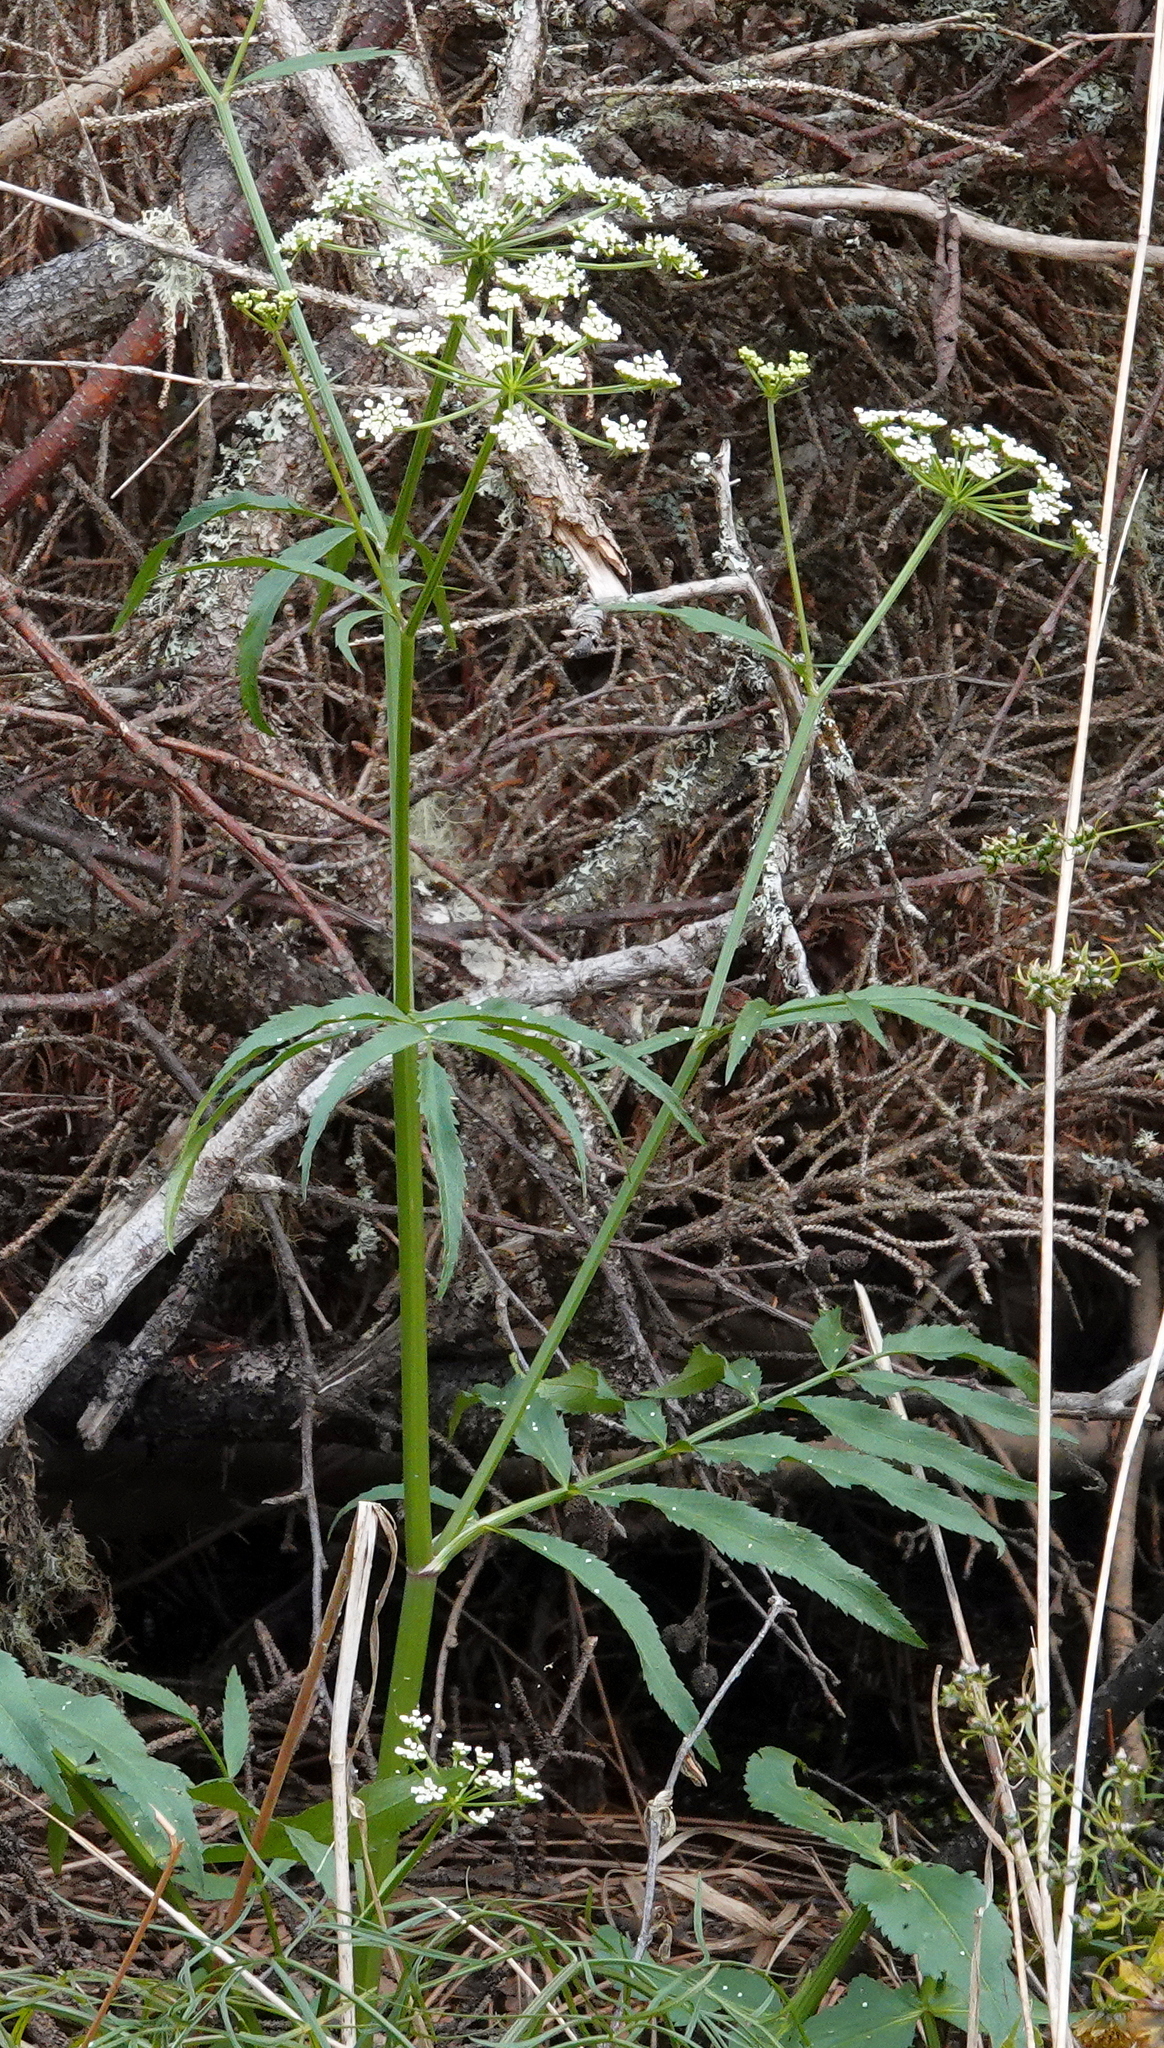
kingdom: Plantae
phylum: Tracheophyta
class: Magnoliopsida
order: Apiales
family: Apiaceae
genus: Sium
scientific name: Sium suave
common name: Hemlock water-parsnip
